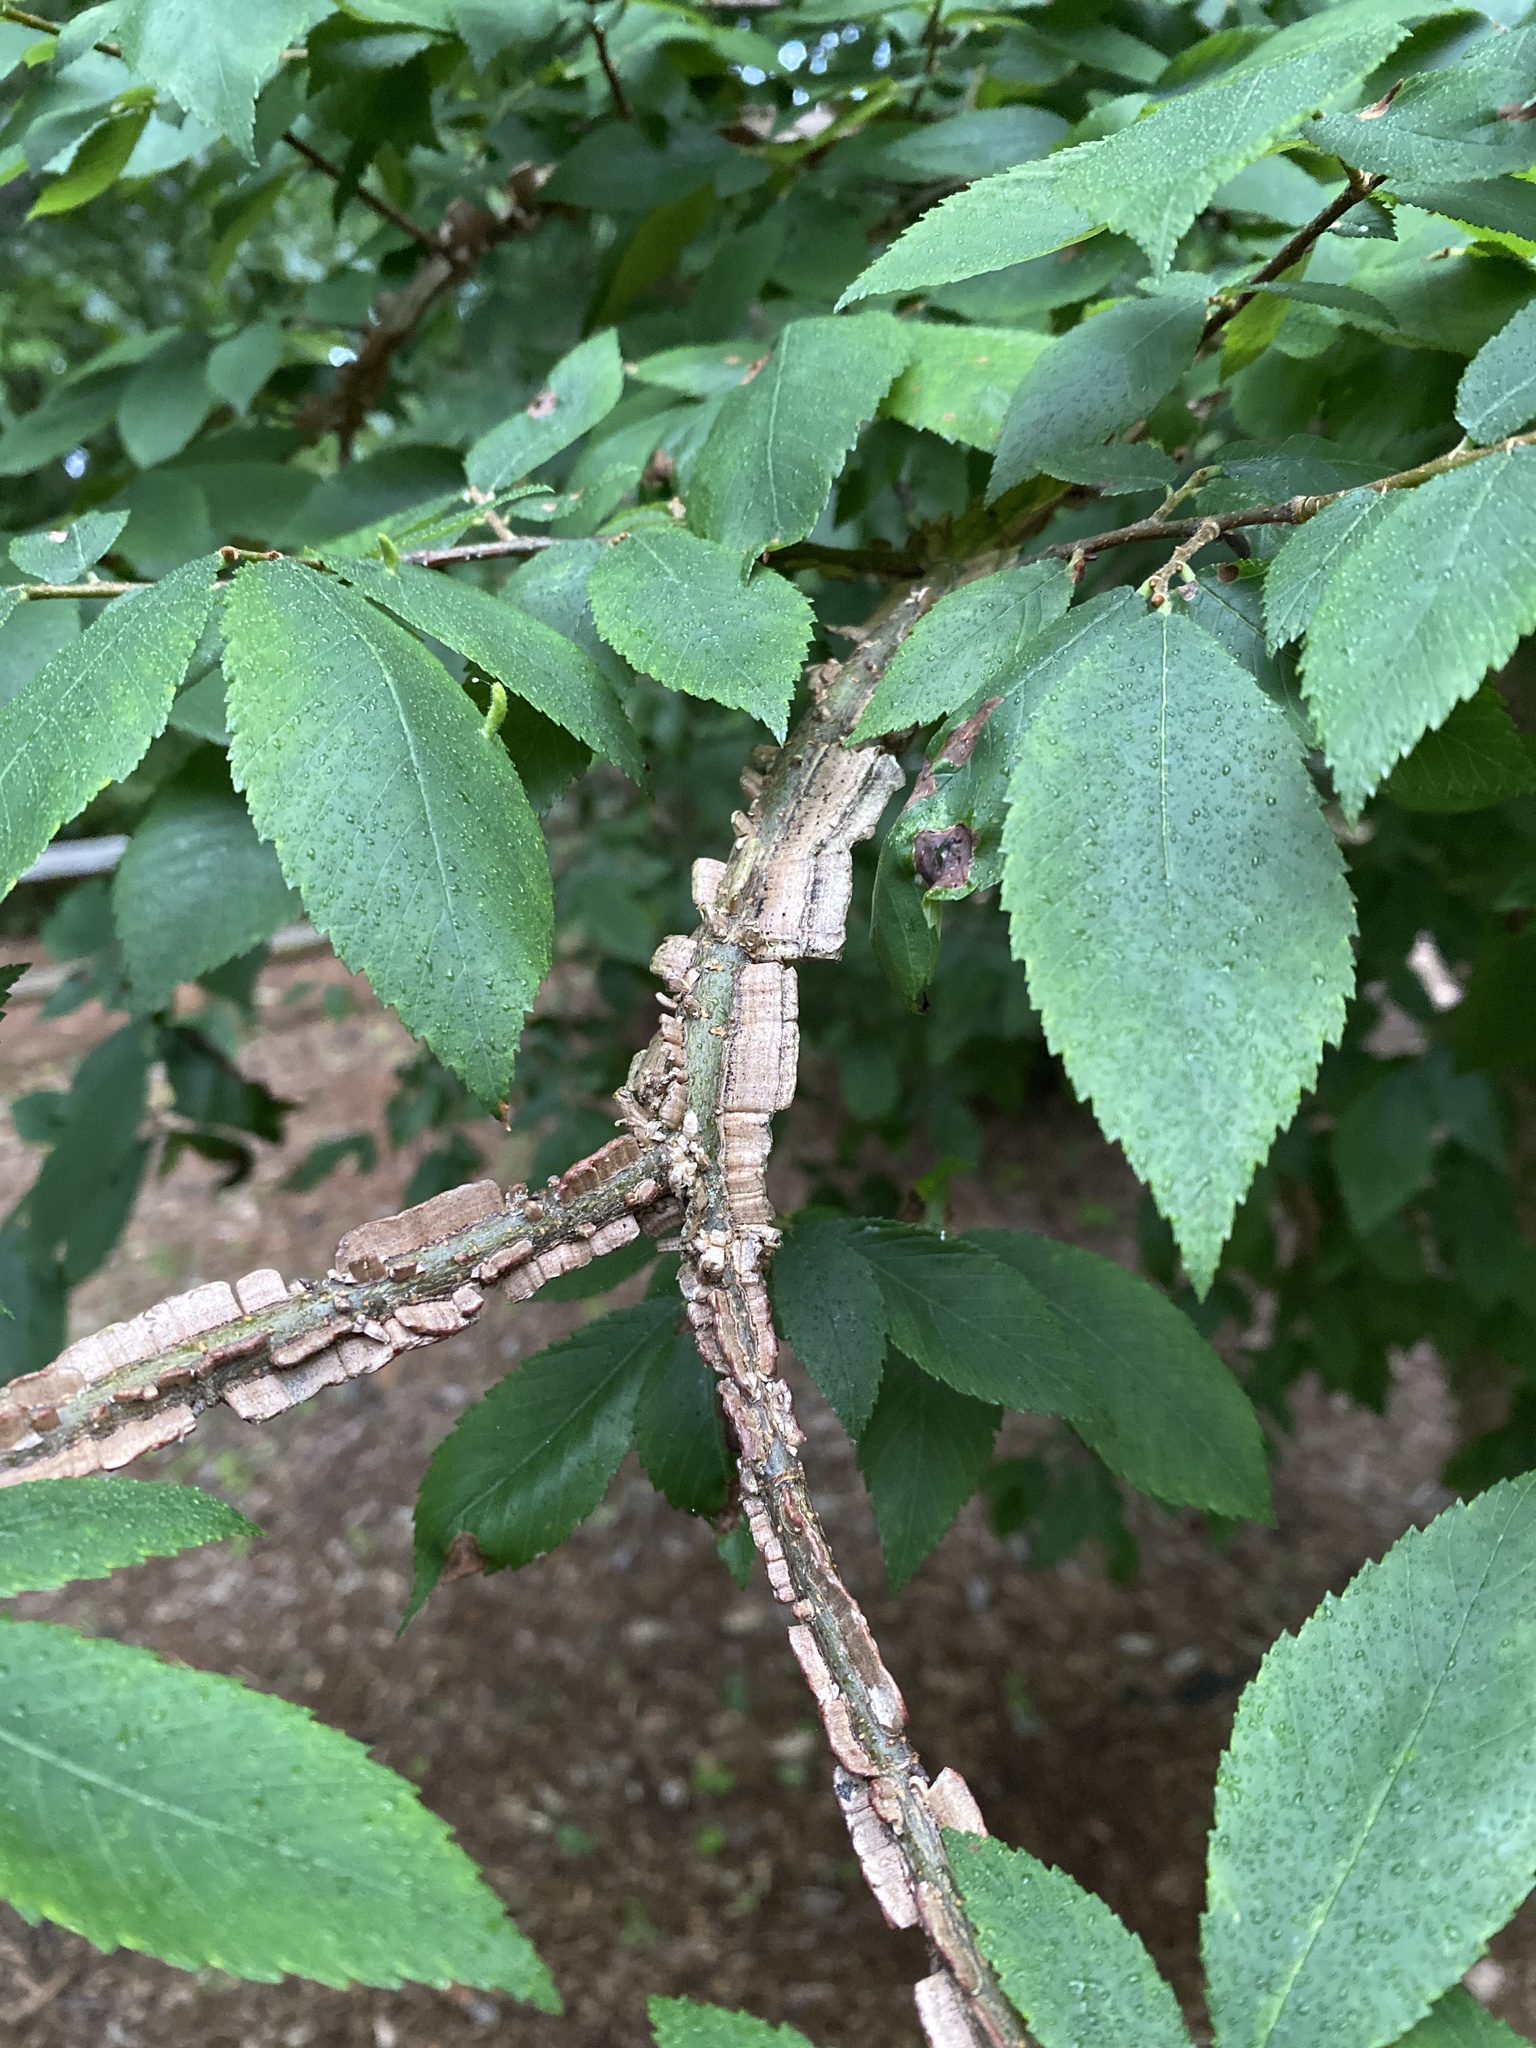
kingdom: Plantae
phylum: Tracheophyta
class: Magnoliopsida
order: Rosales
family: Ulmaceae
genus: Ulmus
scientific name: Ulmus alata
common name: Winged elm
